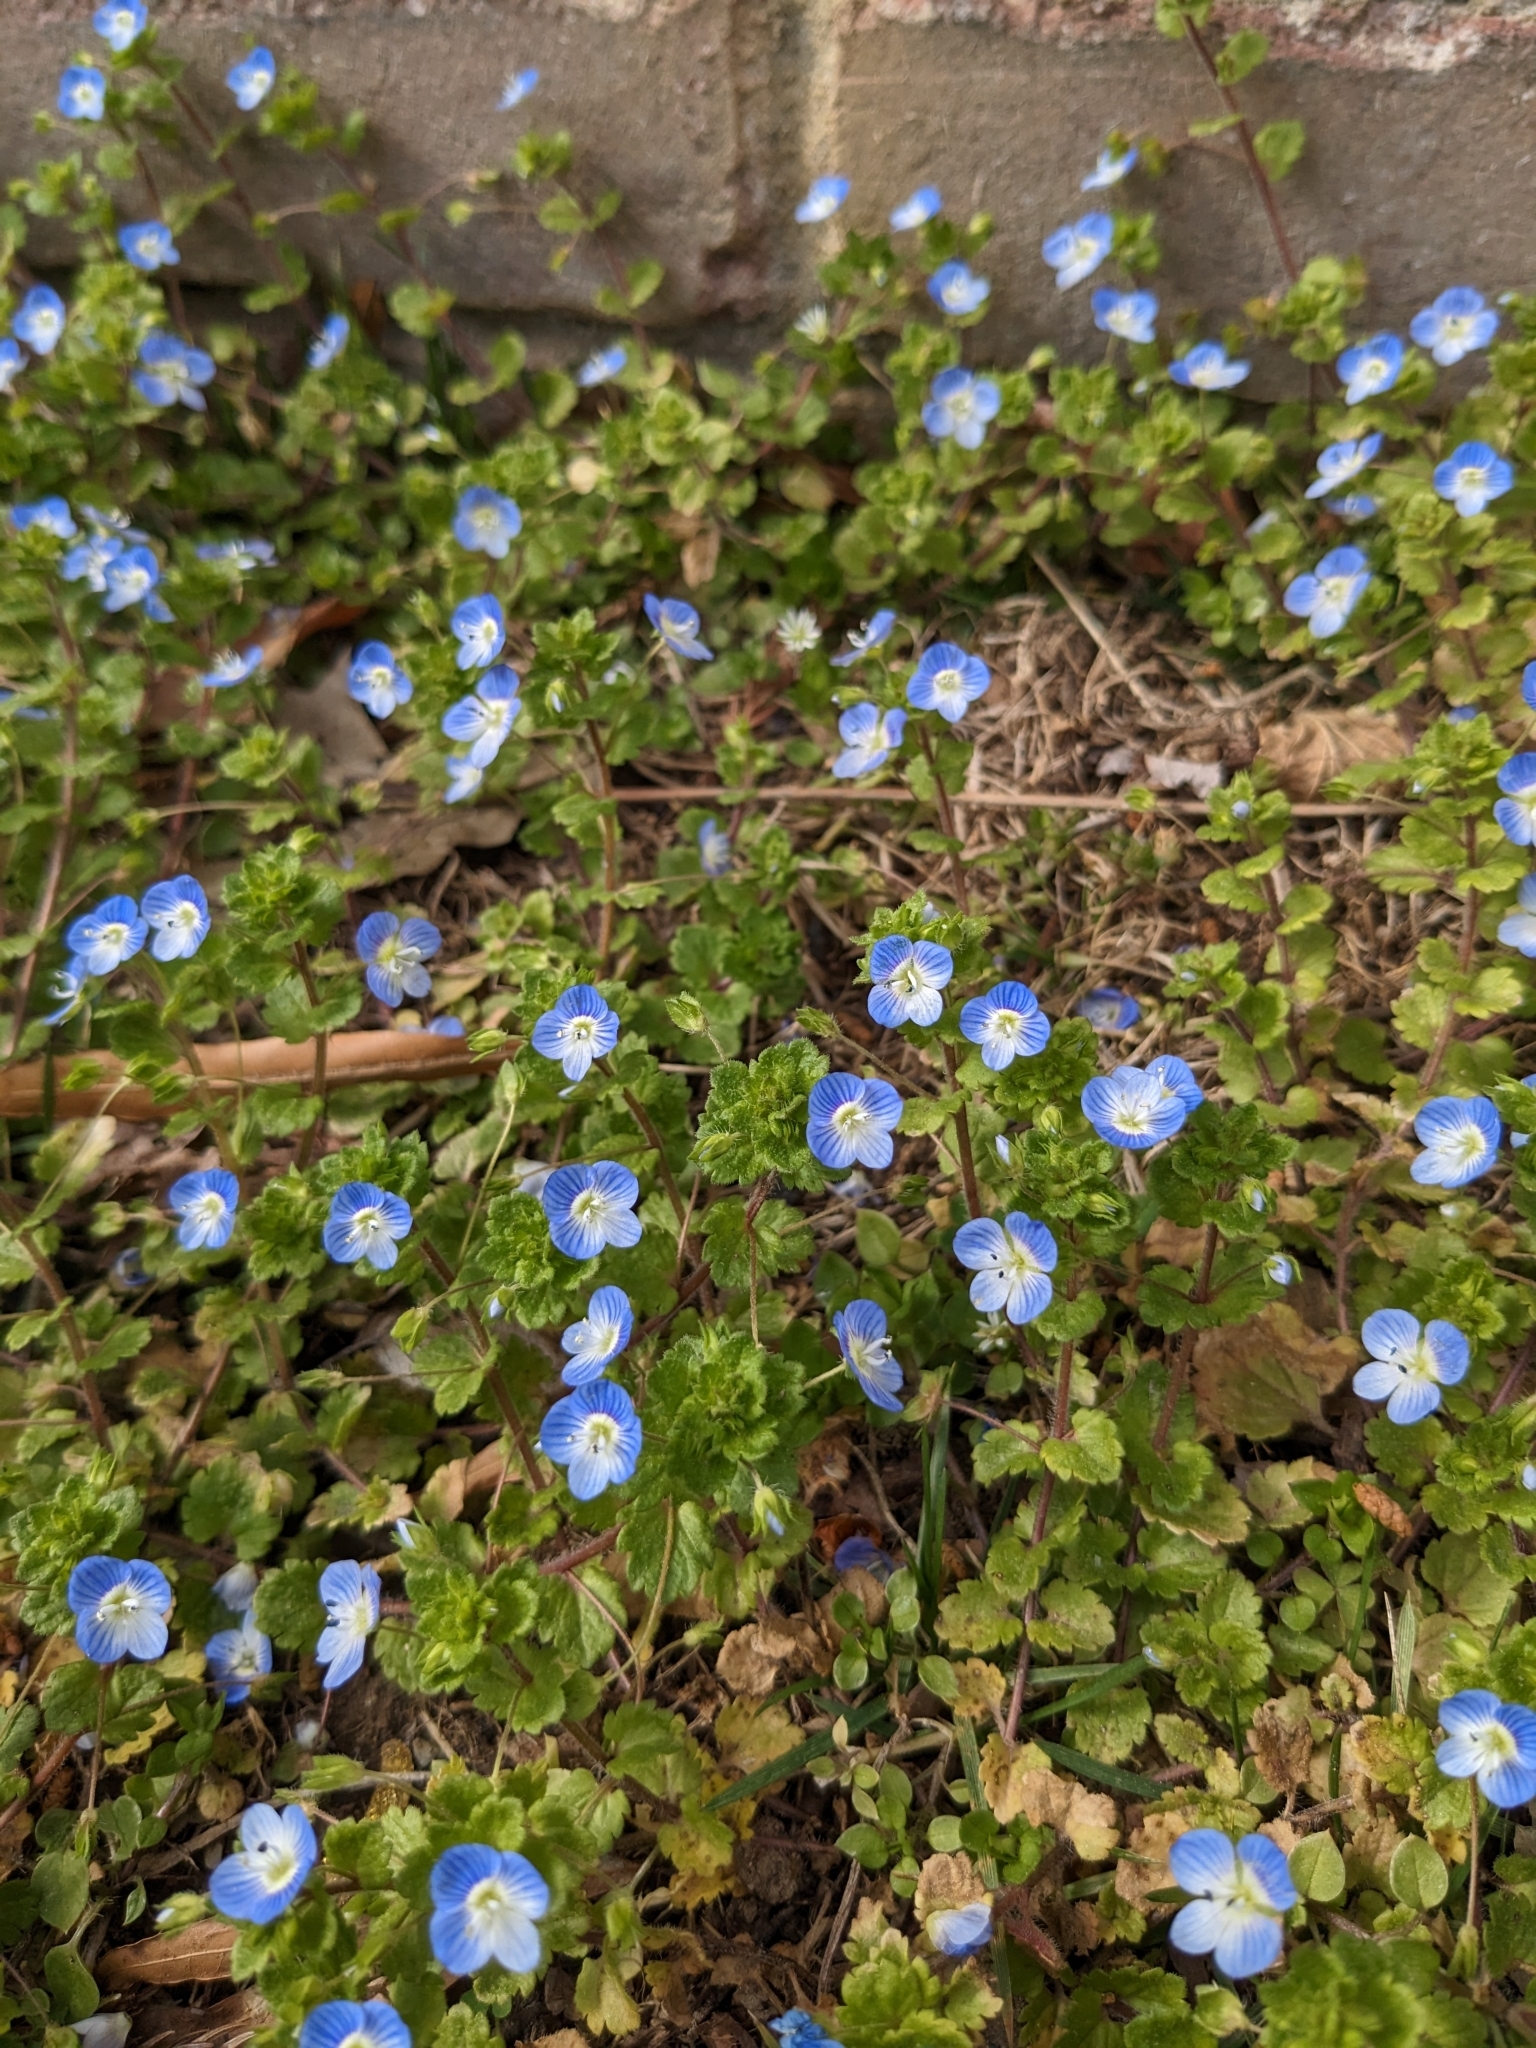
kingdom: Plantae
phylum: Tracheophyta
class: Magnoliopsida
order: Lamiales
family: Plantaginaceae
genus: Veronica
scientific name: Veronica persica
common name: Common field-speedwell
